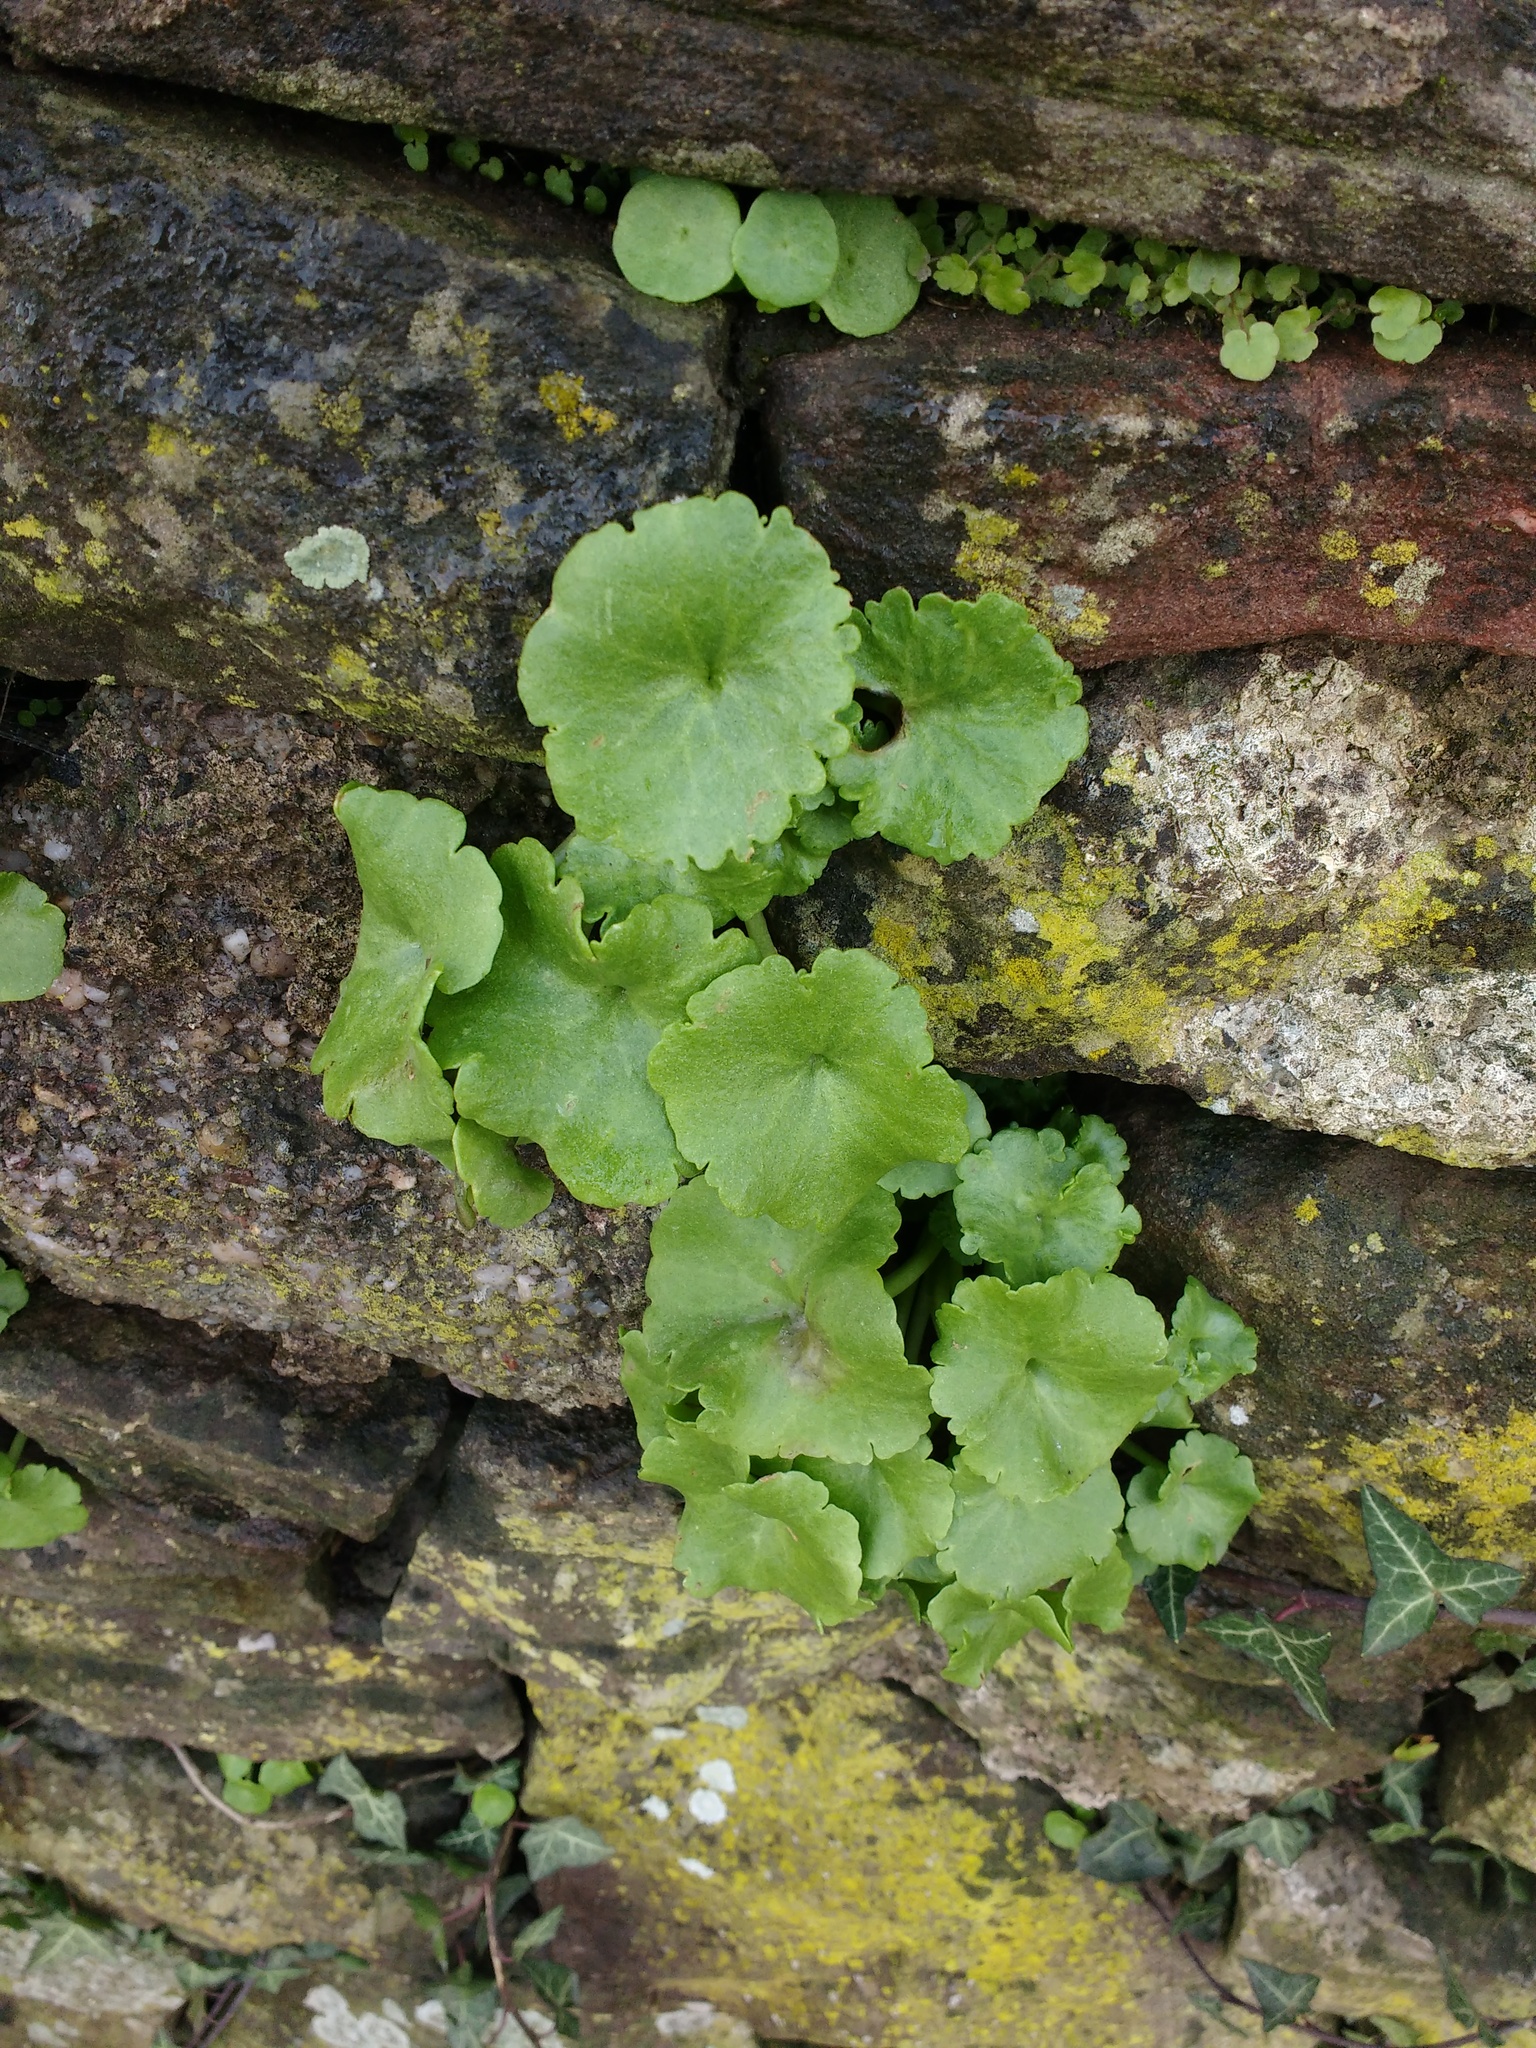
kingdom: Plantae
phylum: Tracheophyta
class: Magnoliopsida
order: Saxifragales
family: Crassulaceae
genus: Umbilicus
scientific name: Umbilicus rupestris
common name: Navelwort
